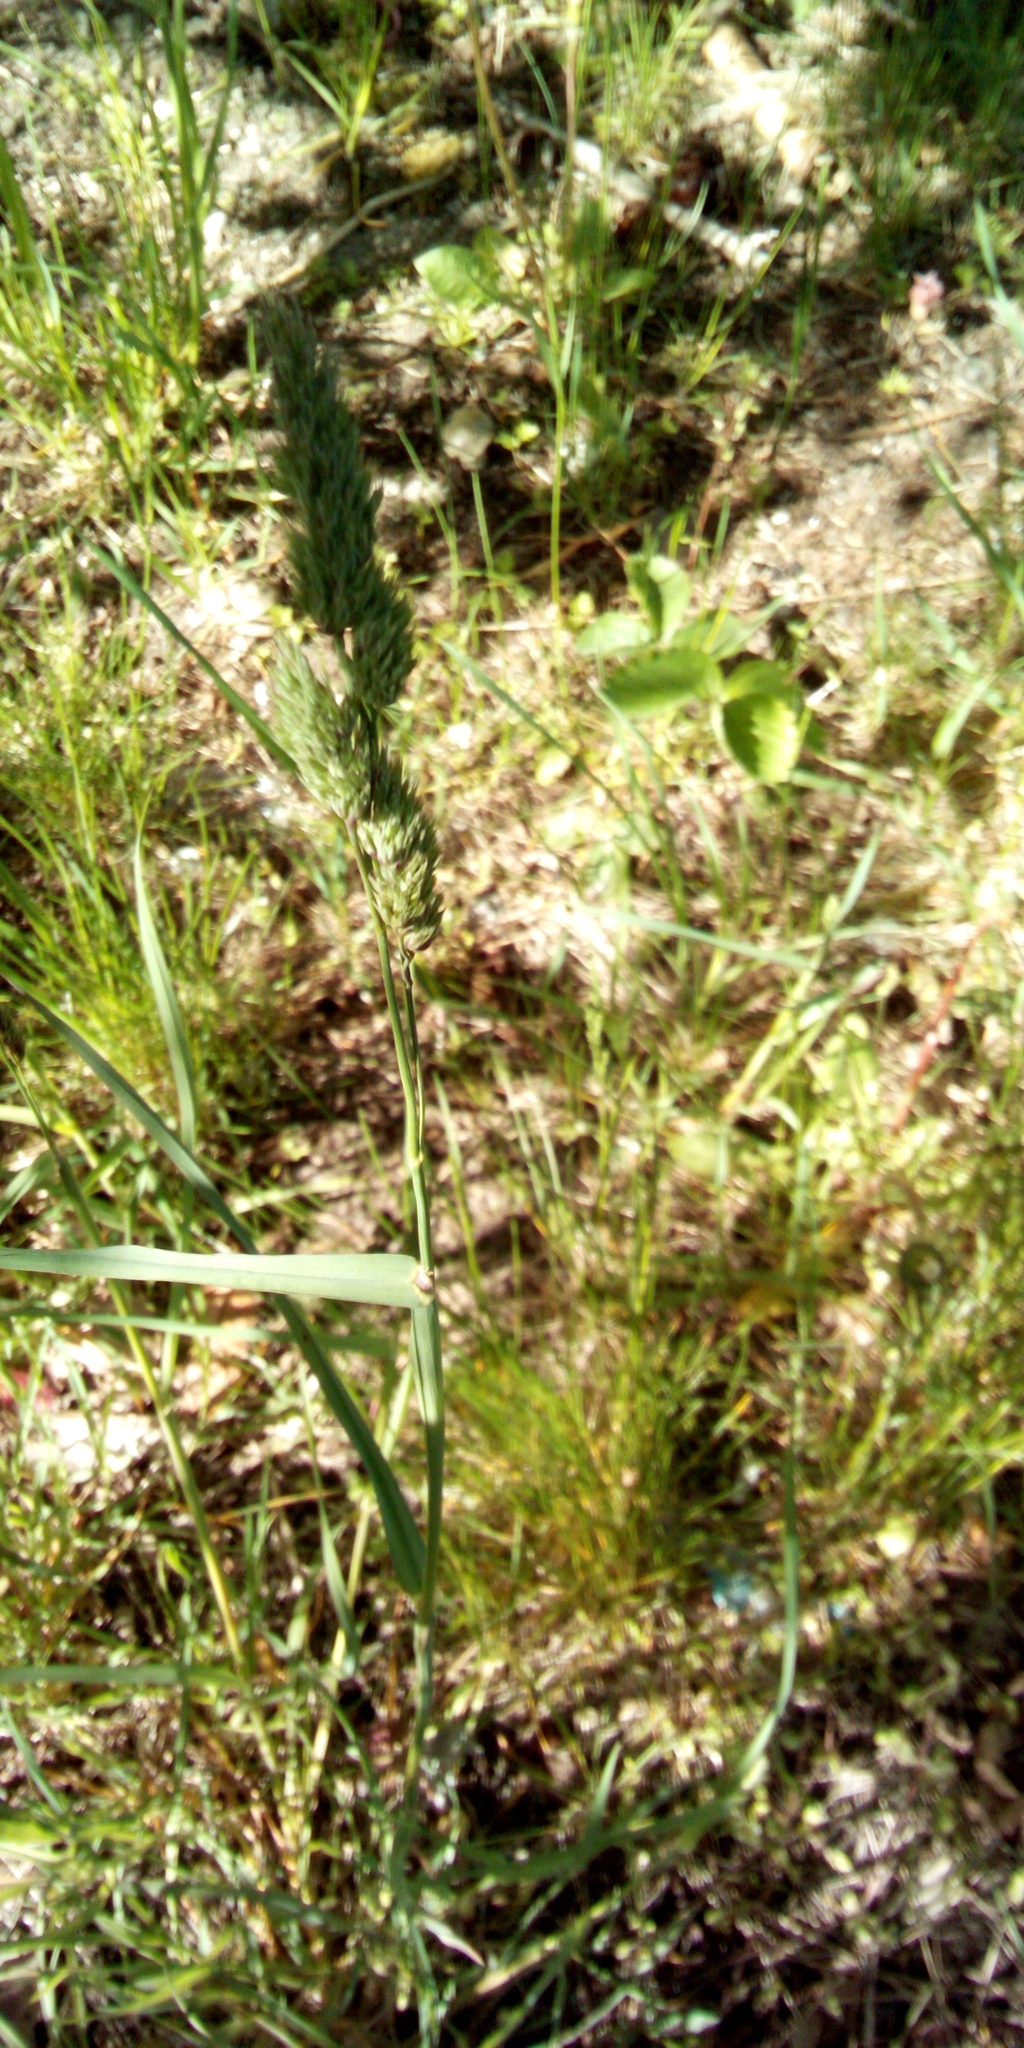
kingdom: Plantae
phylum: Tracheophyta
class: Liliopsida
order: Poales
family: Poaceae
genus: Dactylis
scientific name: Dactylis glomerata
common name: Orchardgrass
